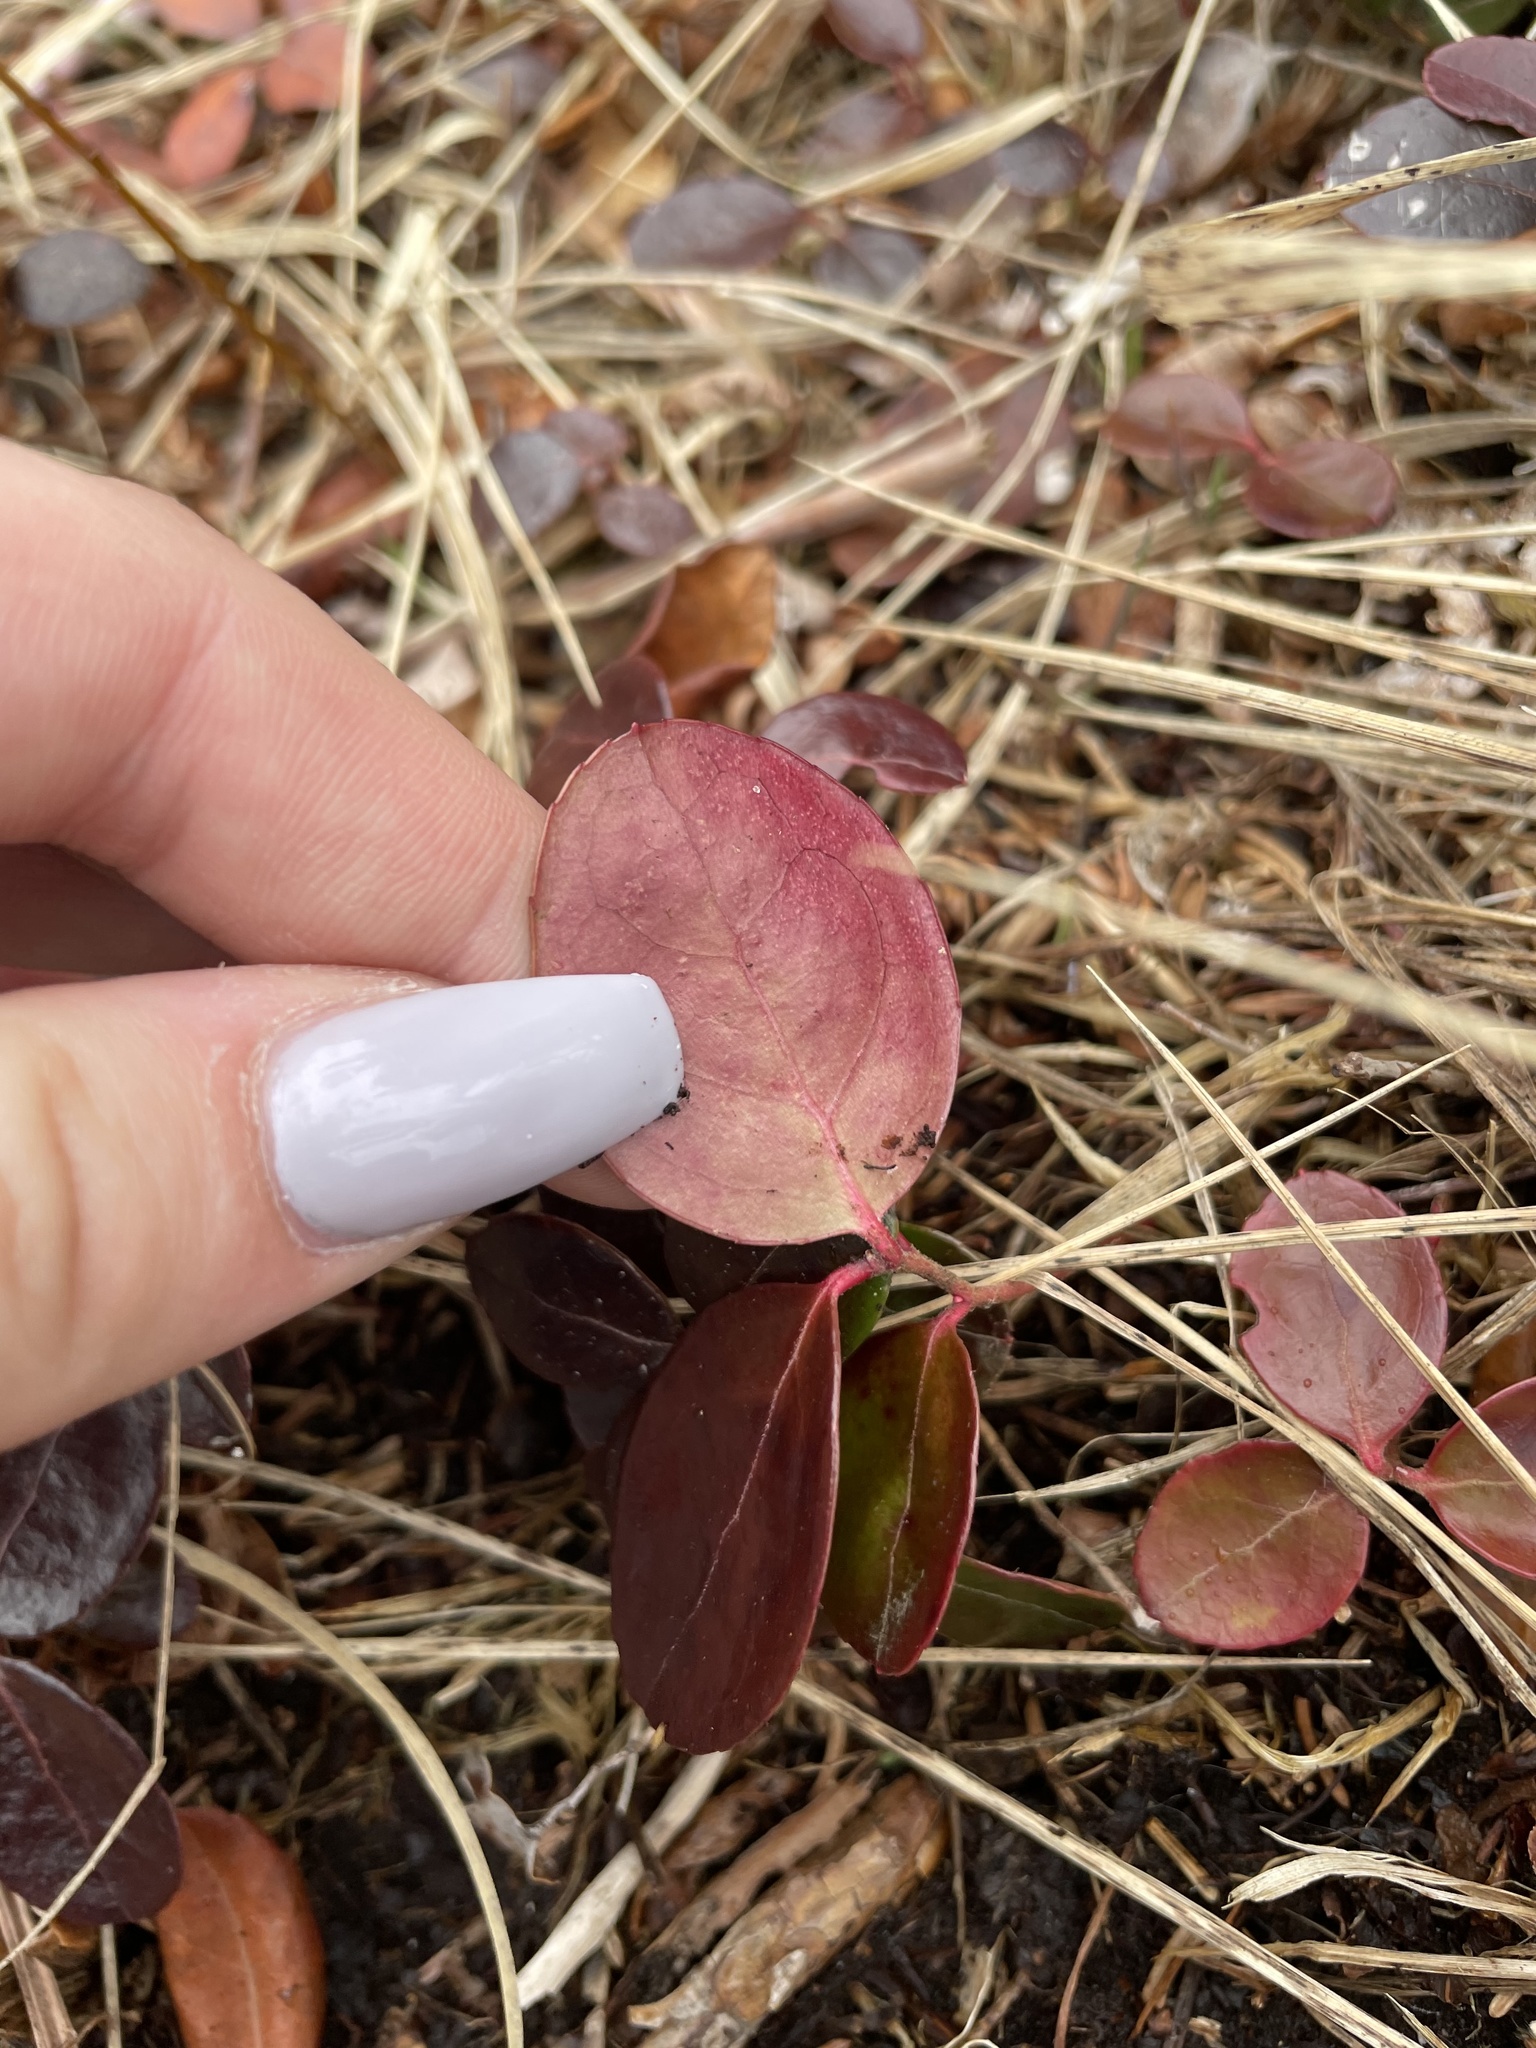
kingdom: Plantae
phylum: Tracheophyta
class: Magnoliopsida
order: Ericales
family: Ericaceae
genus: Gaultheria
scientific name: Gaultheria procumbens
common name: Checkerberry
